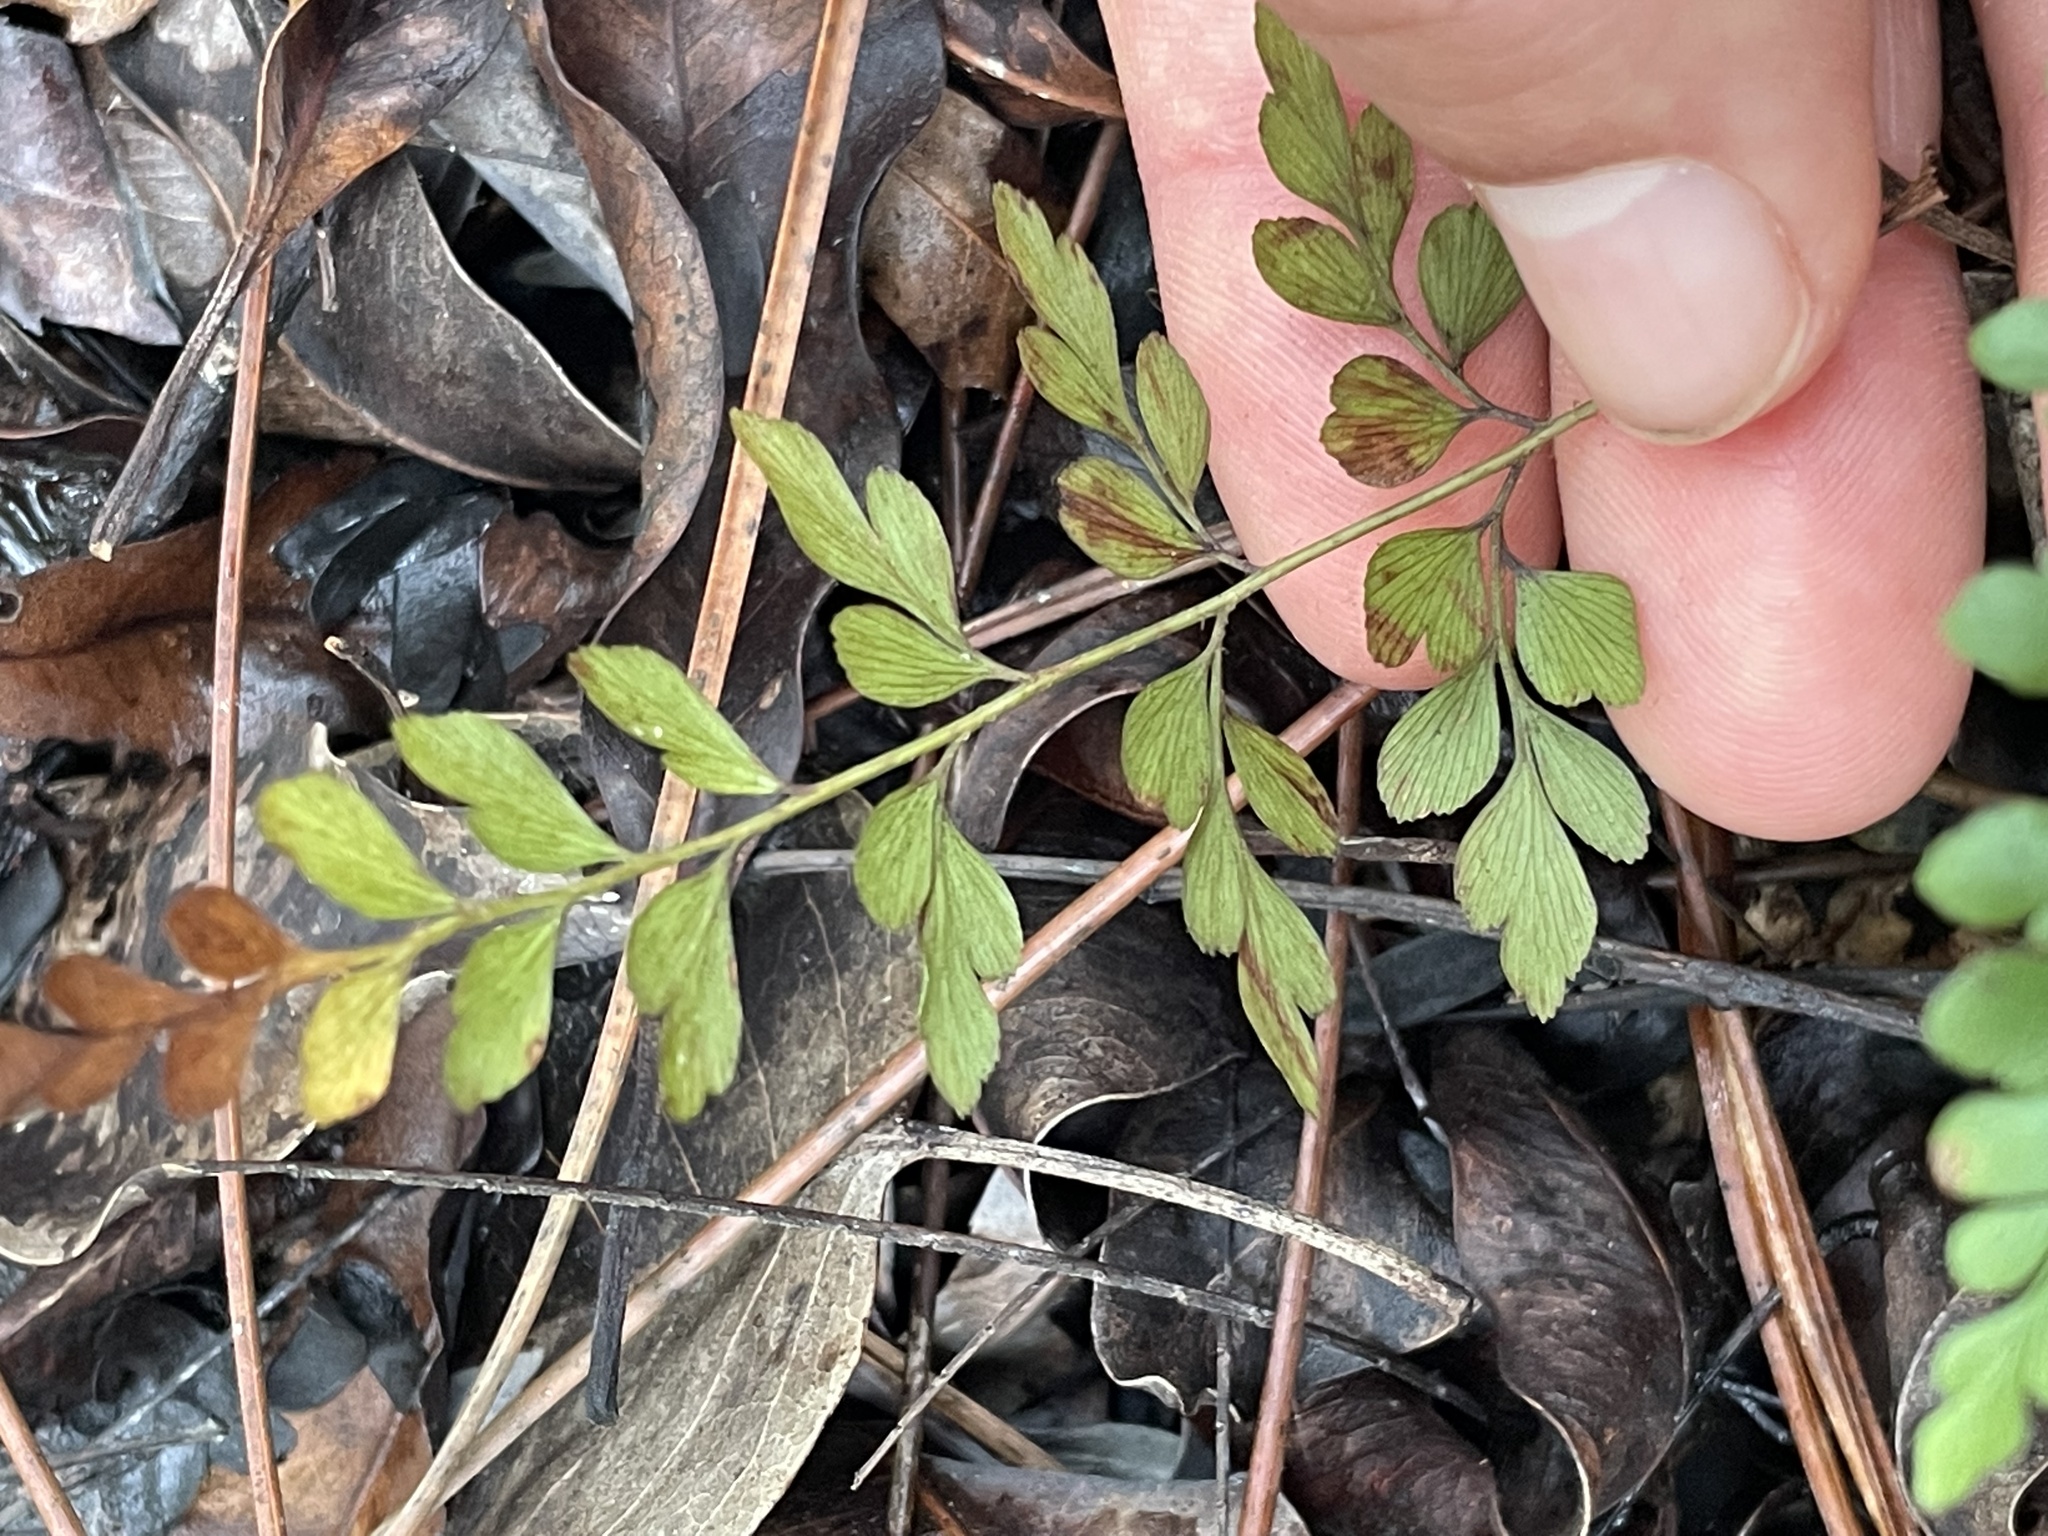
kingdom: Plantae
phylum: Tracheophyta
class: Polypodiopsida
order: Schizaeales
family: Anemiaceae
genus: Anemia
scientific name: Anemia adiantifolia
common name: Pine fern
